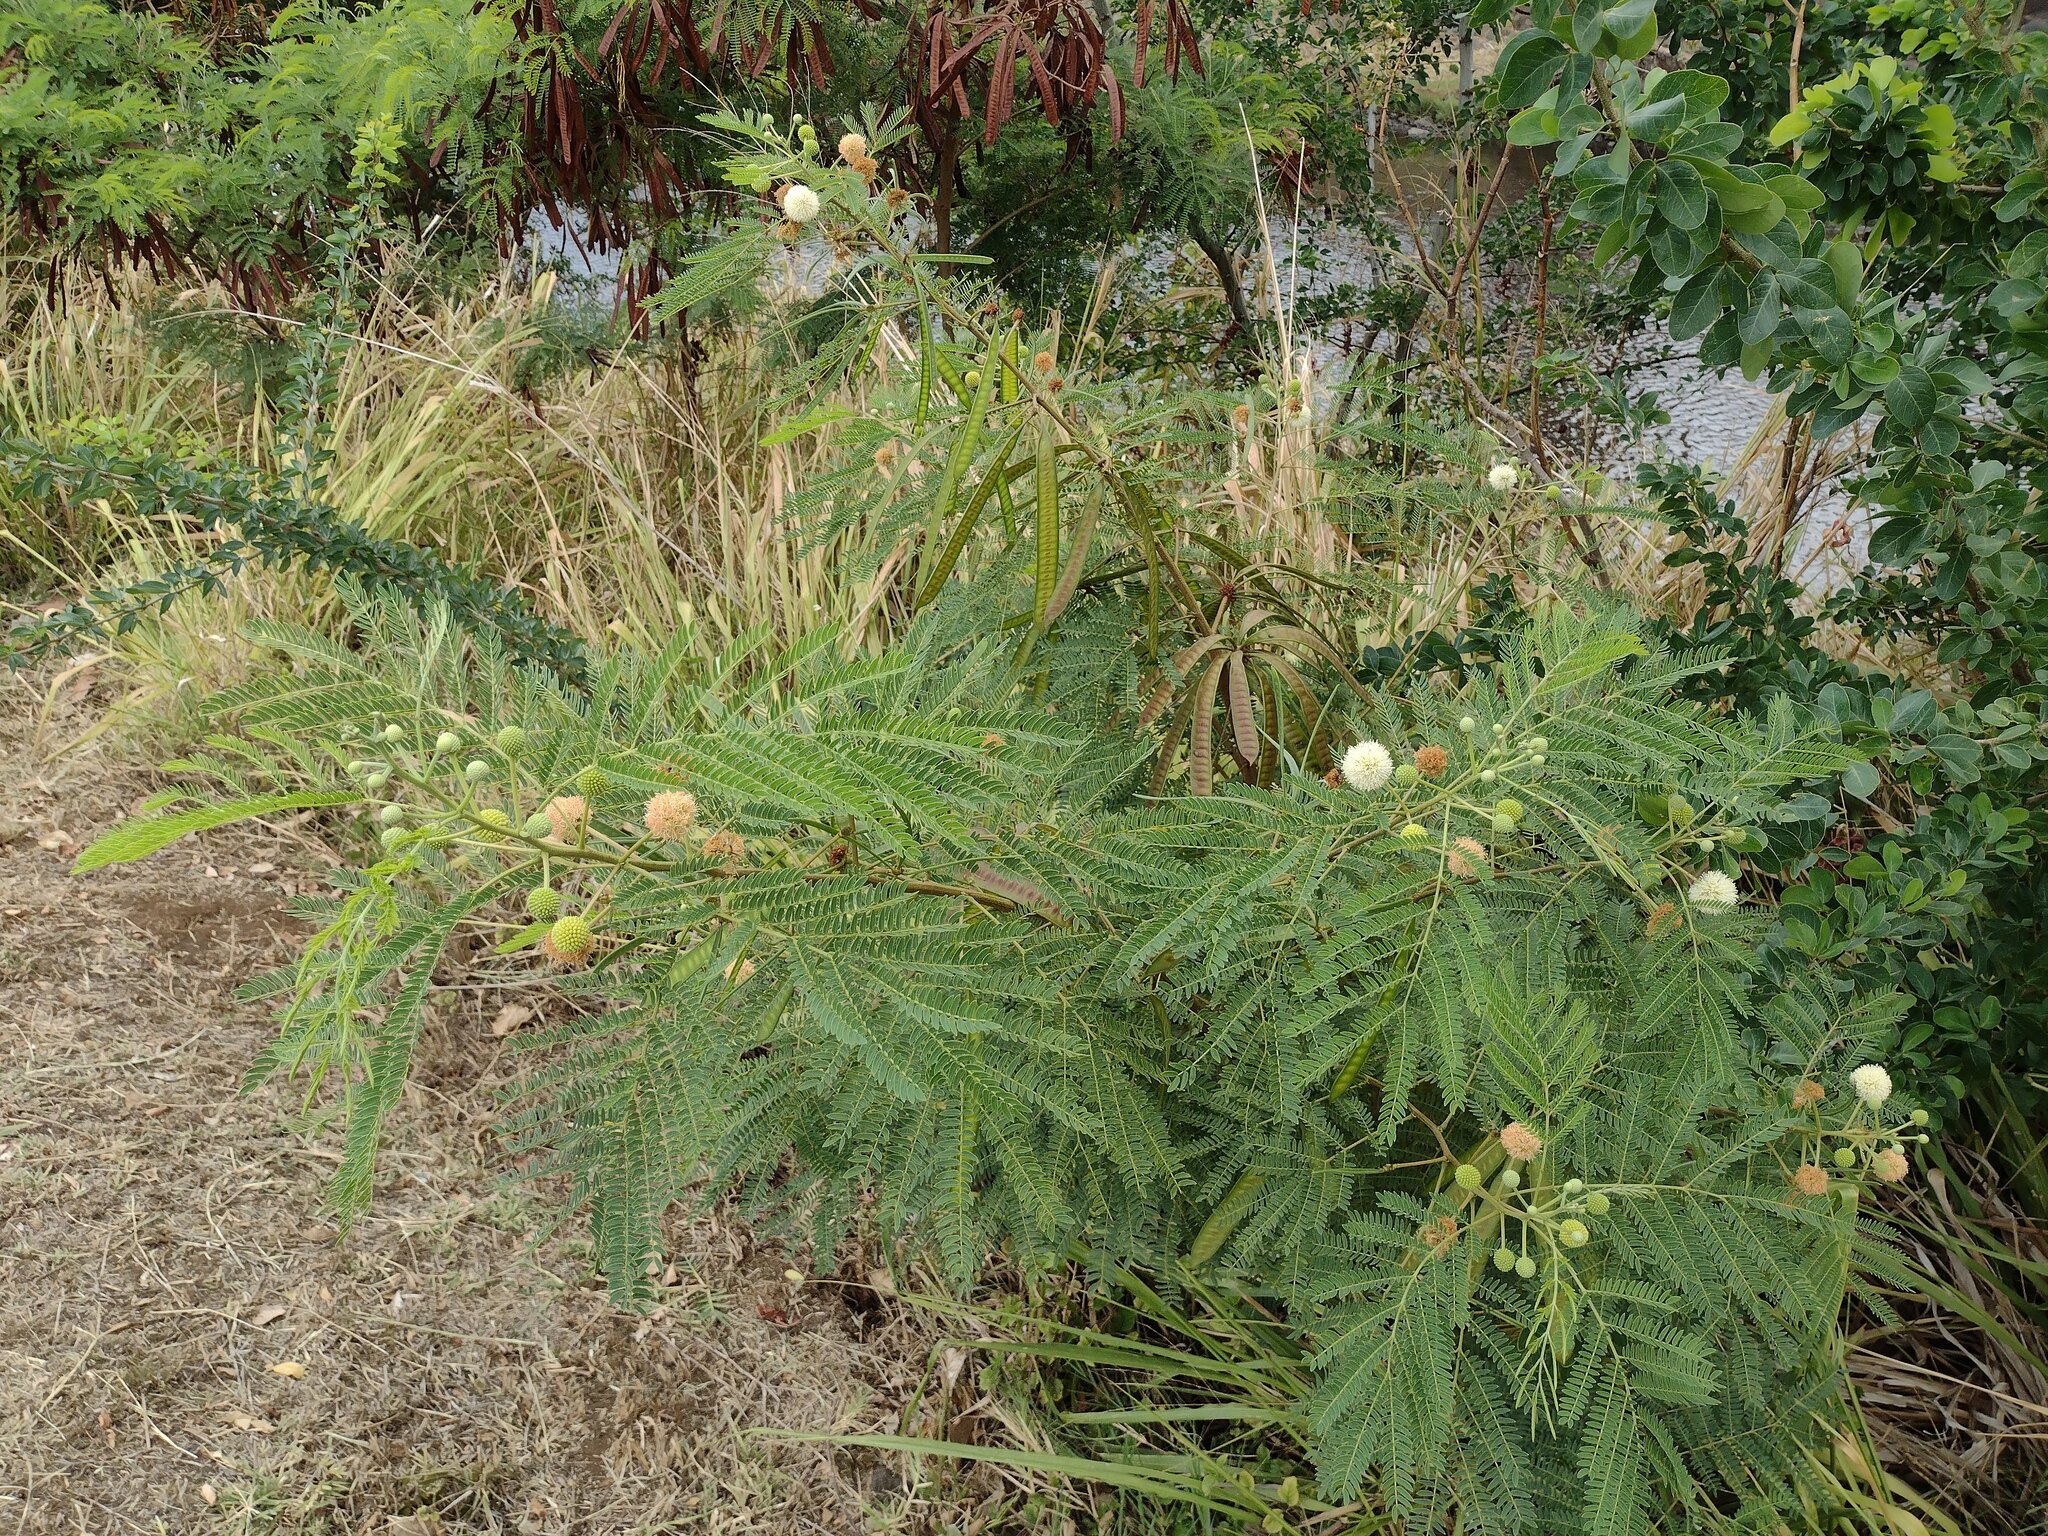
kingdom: Plantae
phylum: Tracheophyta
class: Magnoliopsida
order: Fabales
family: Fabaceae
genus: Leucaena
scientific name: Leucaena leucocephala
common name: White leadtree
